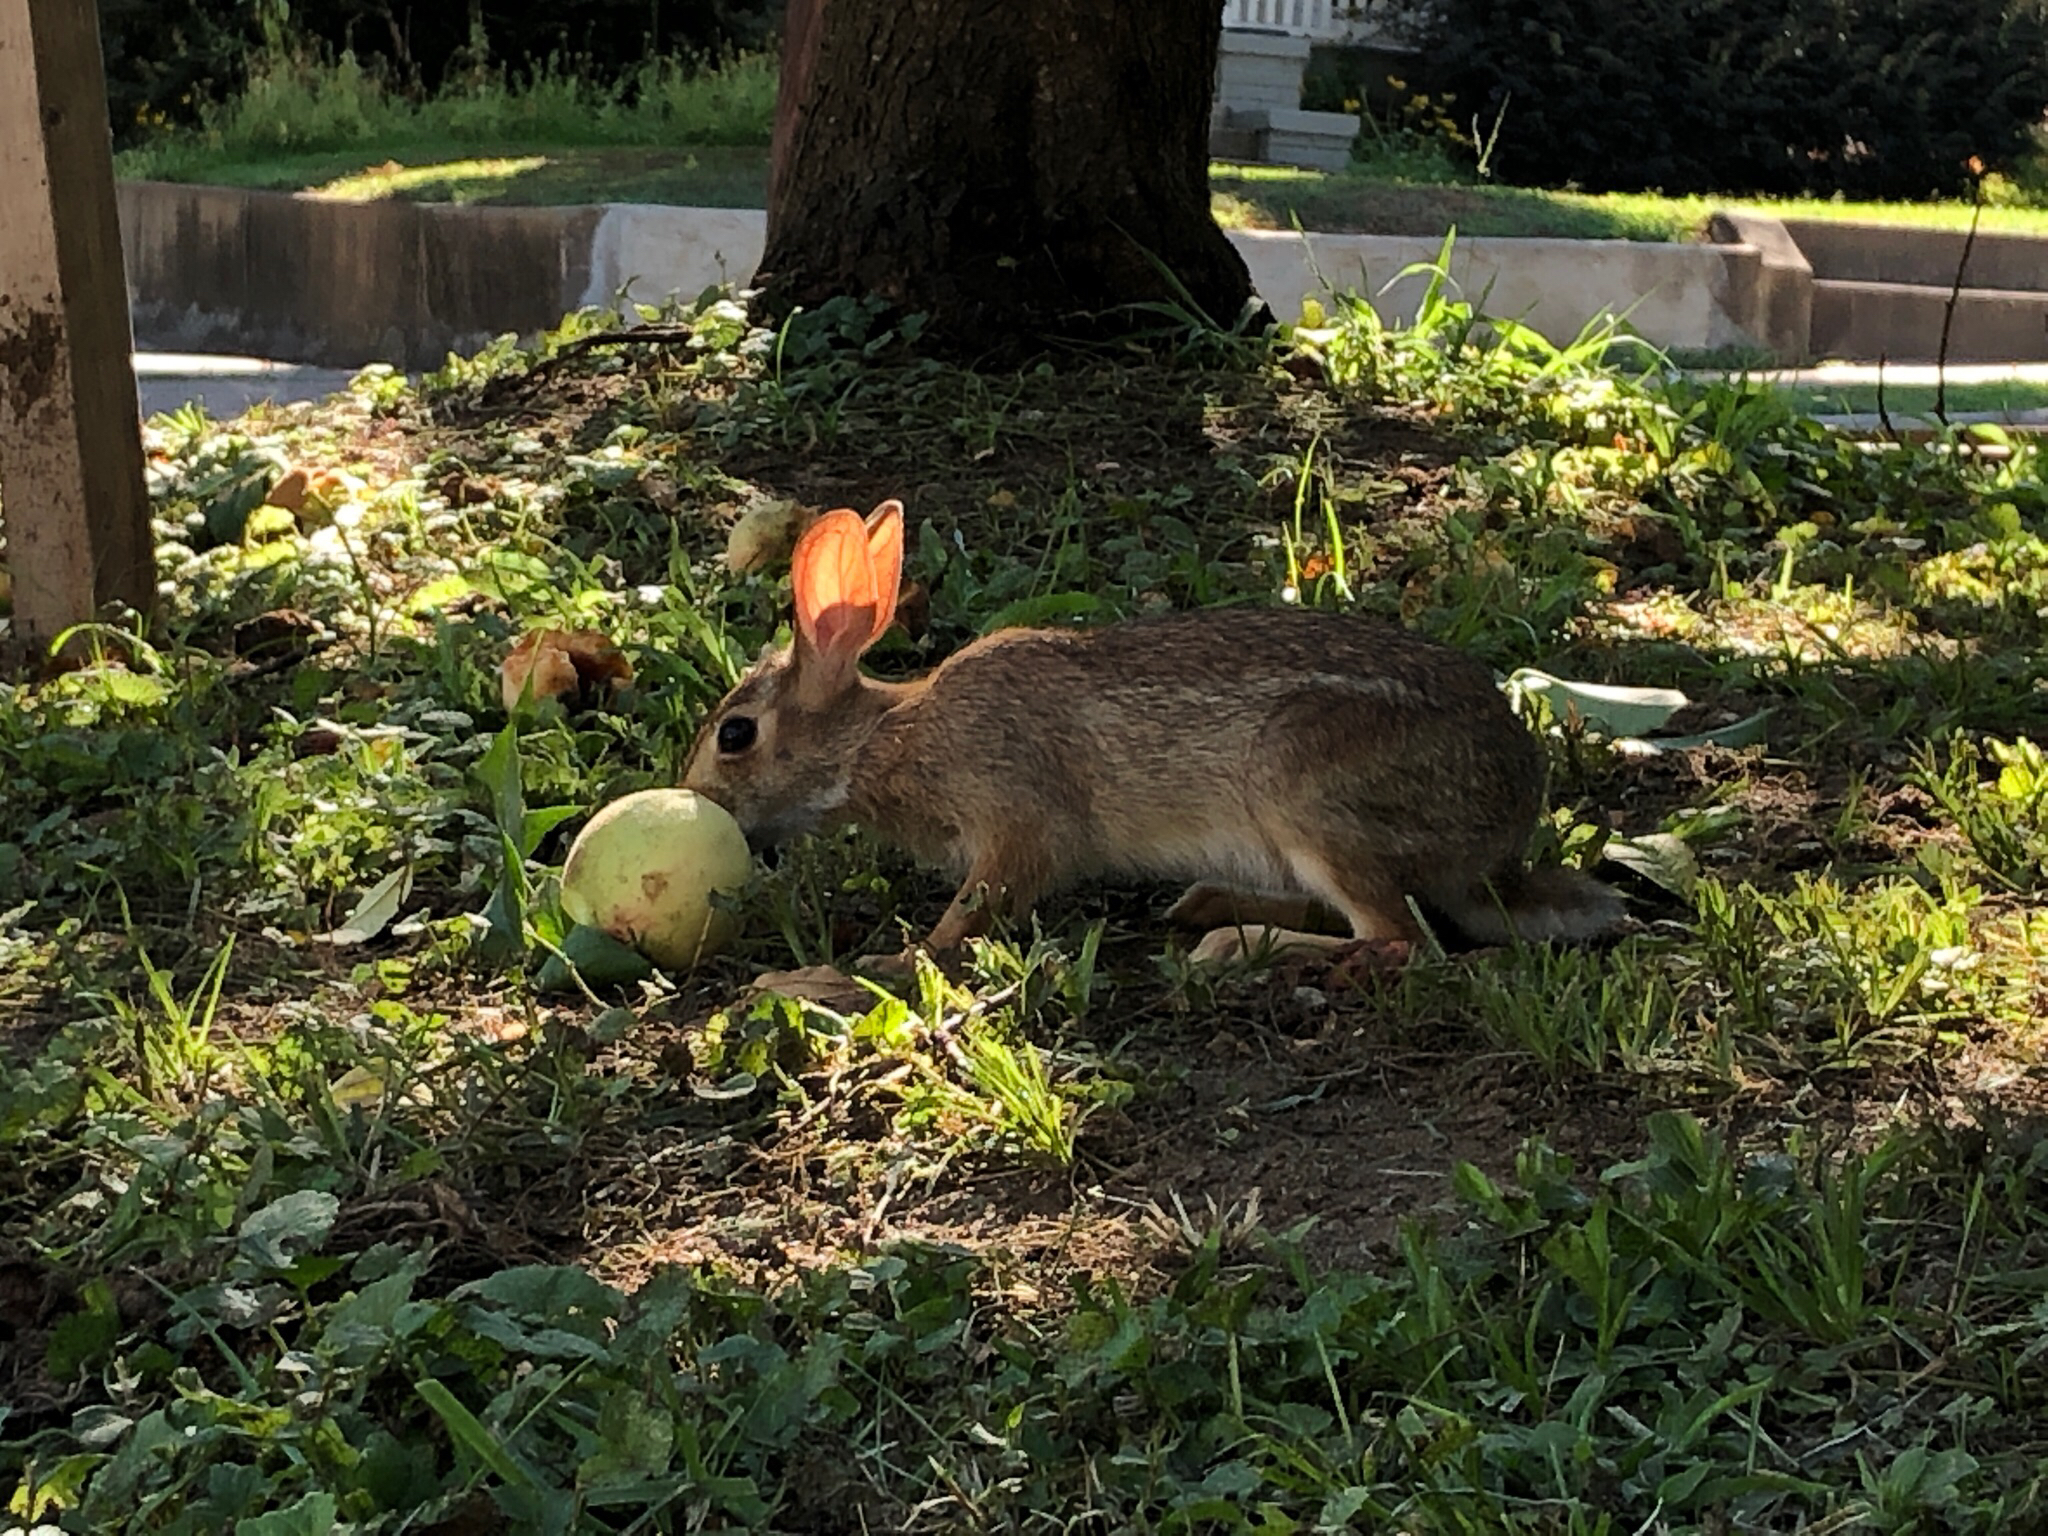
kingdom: Animalia
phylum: Chordata
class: Mammalia
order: Lagomorpha
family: Leporidae
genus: Sylvilagus
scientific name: Sylvilagus floridanus
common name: Eastern cottontail
